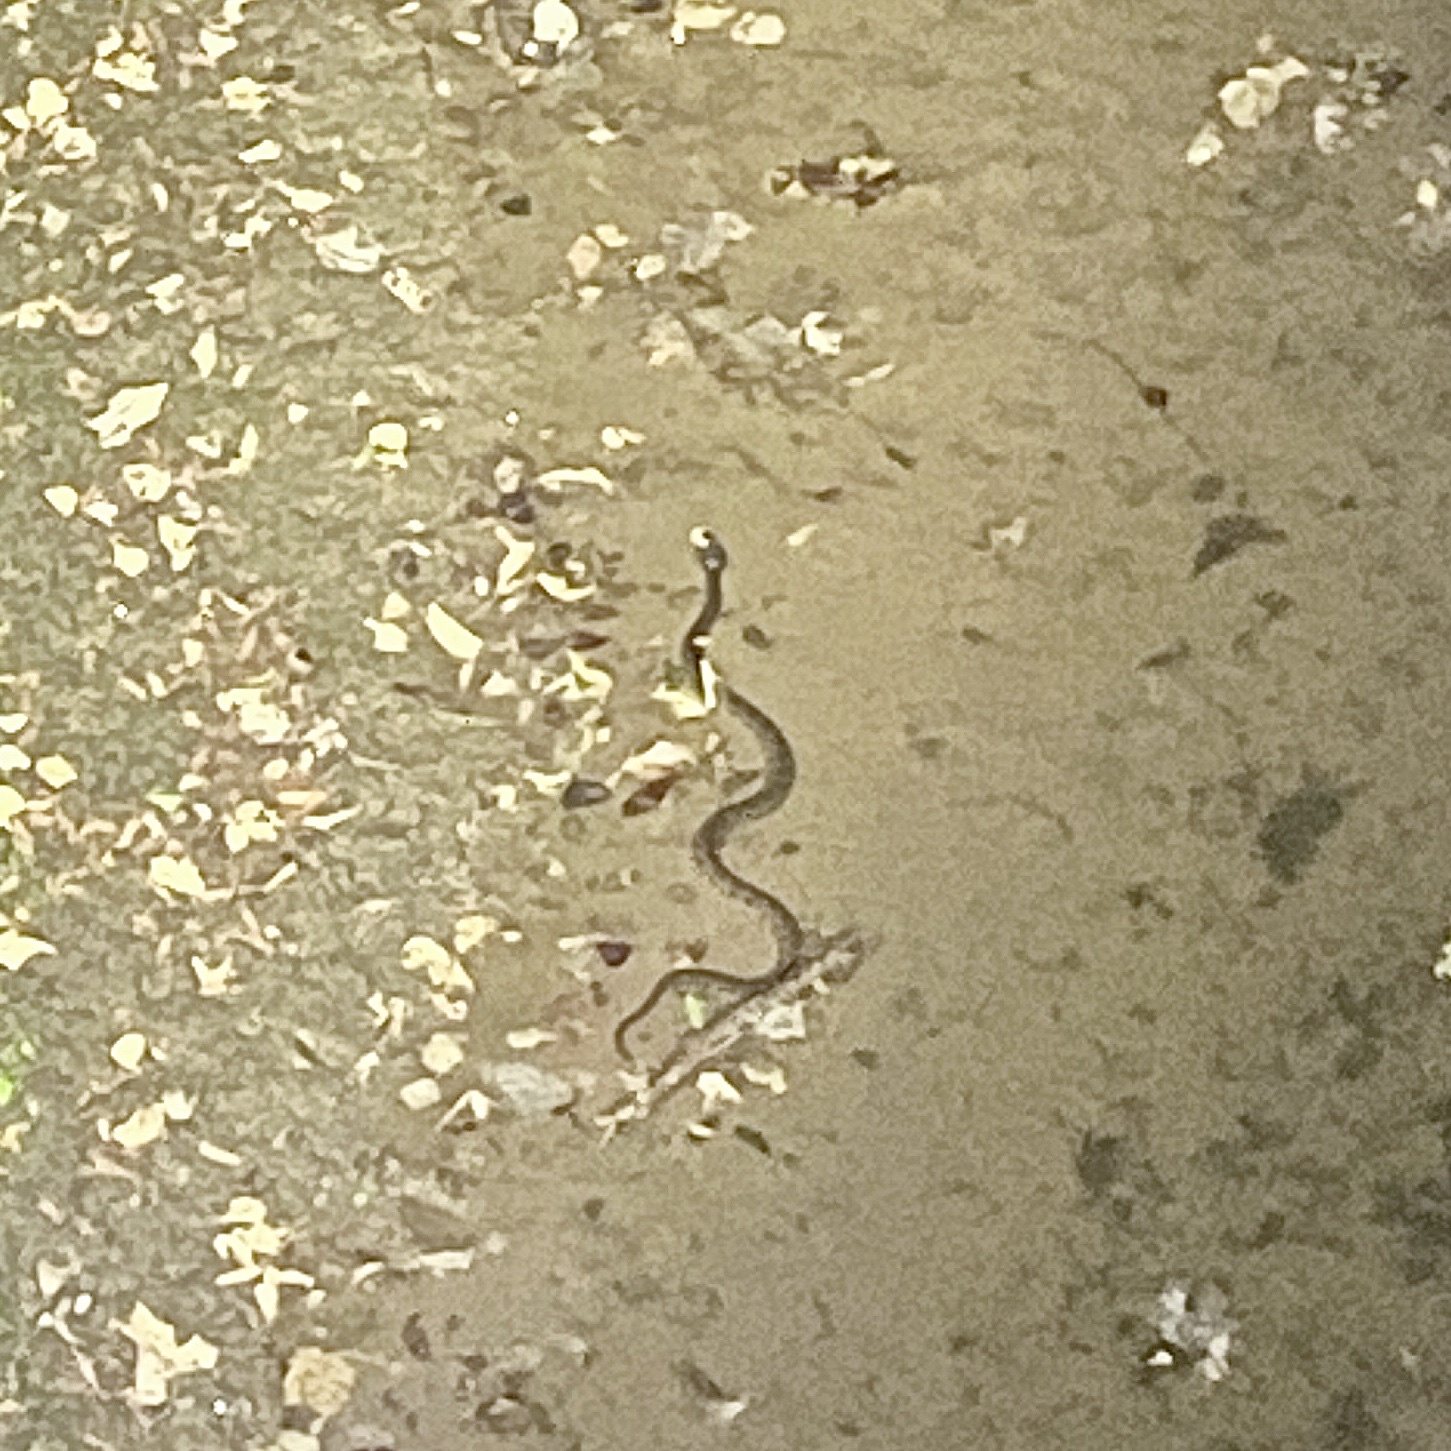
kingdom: Animalia
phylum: Chordata
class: Squamata
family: Colubridae
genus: Nerodia
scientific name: Nerodia erythrogaster
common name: Plainbelly water snake
